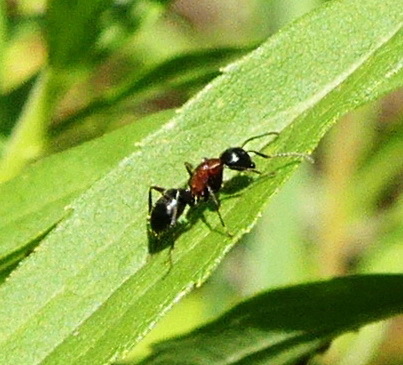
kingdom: Animalia
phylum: Arthropoda
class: Insecta
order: Hymenoptera
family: Formicidae
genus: Camponotus
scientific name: Camponotus novaeboracensis
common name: New york carpenter ant
